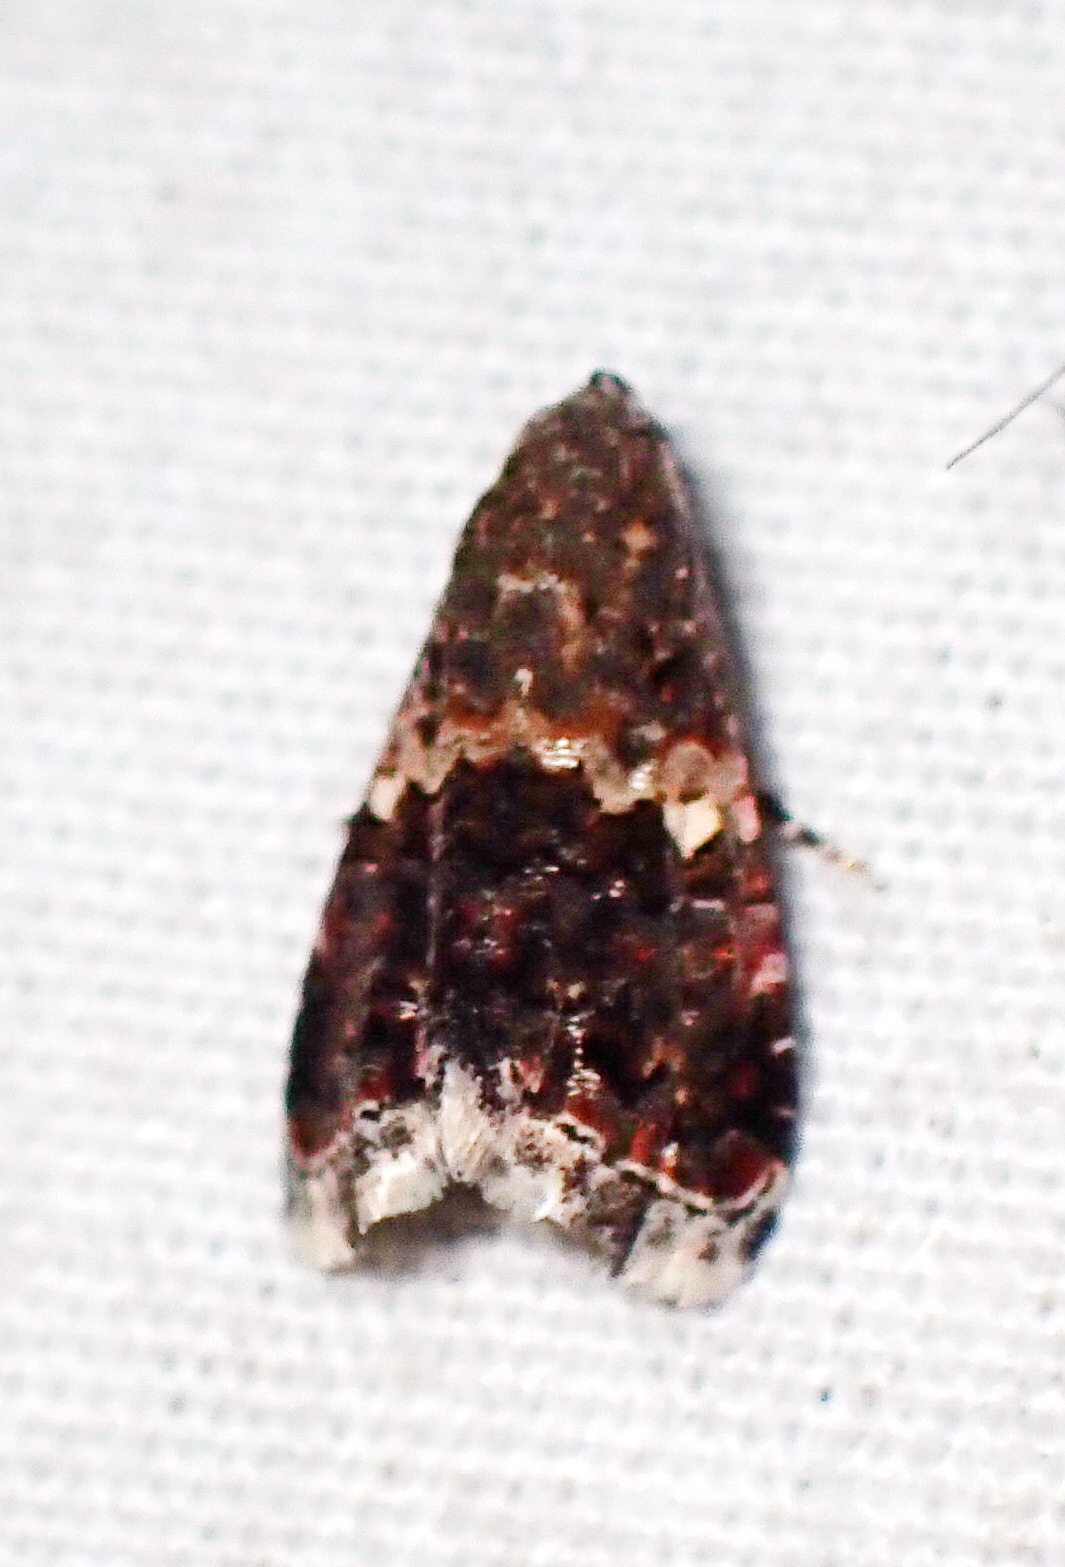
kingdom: Animalia
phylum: Arthropoda
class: Insecta
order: Lepidoptera
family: Noctuidae
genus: Tripudia
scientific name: Tripudia luxuriosa
